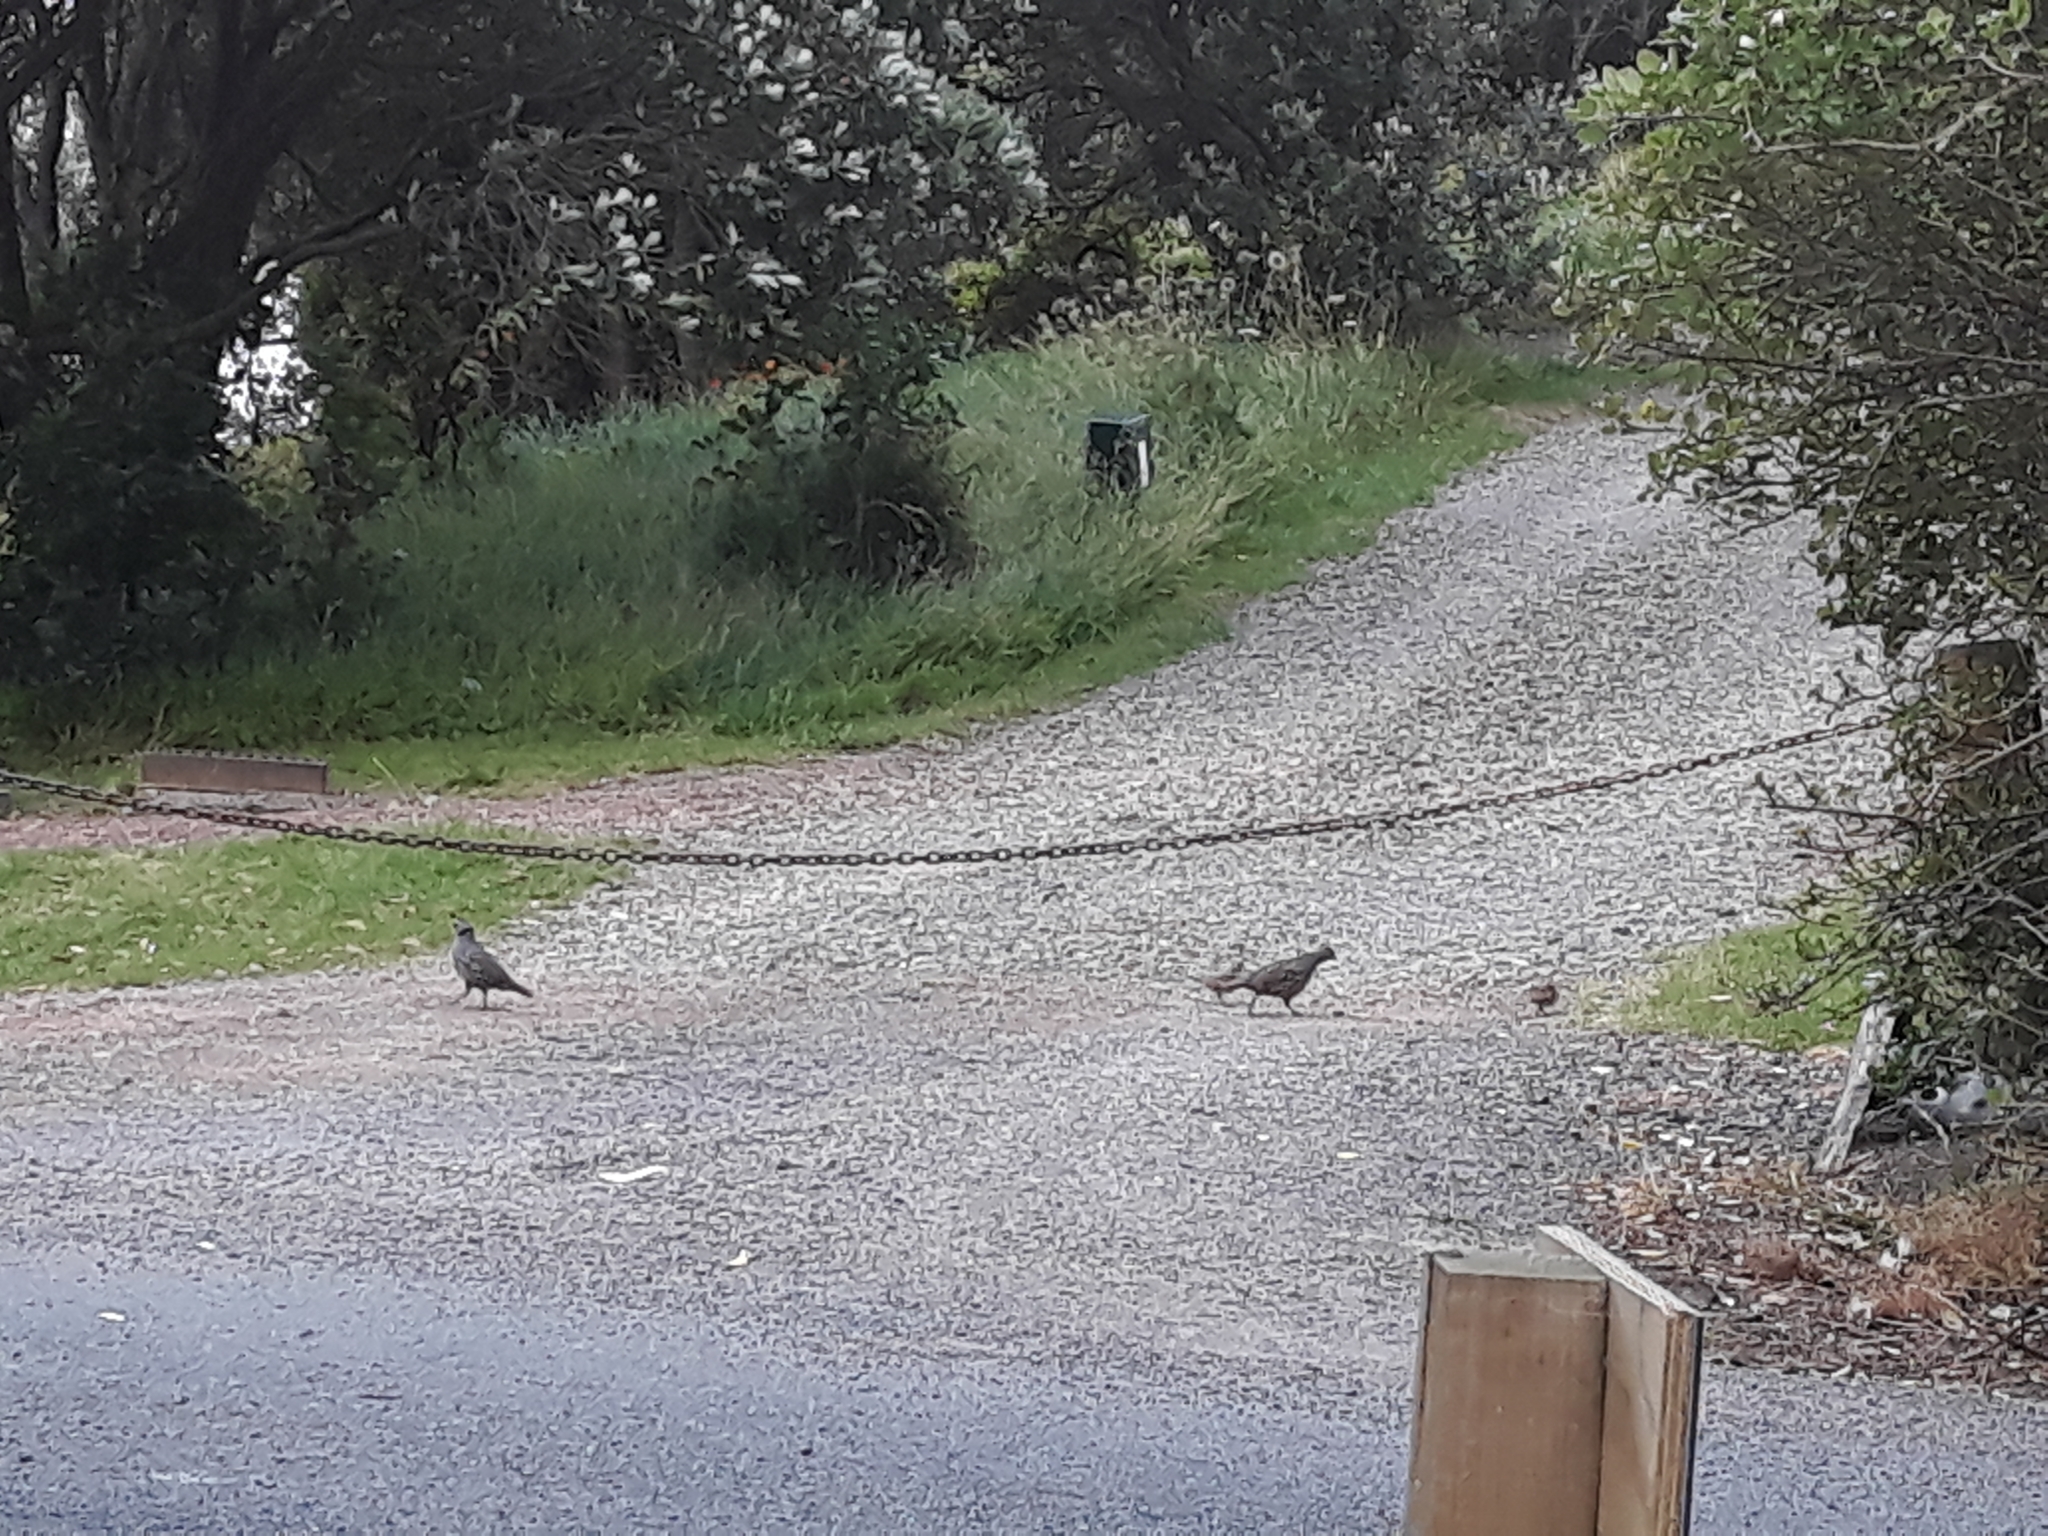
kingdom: Animalia
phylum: Chordata
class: Aves
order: Galliformes
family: Odontophoridae
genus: Callipepla
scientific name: Callipepla californica
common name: California quail
